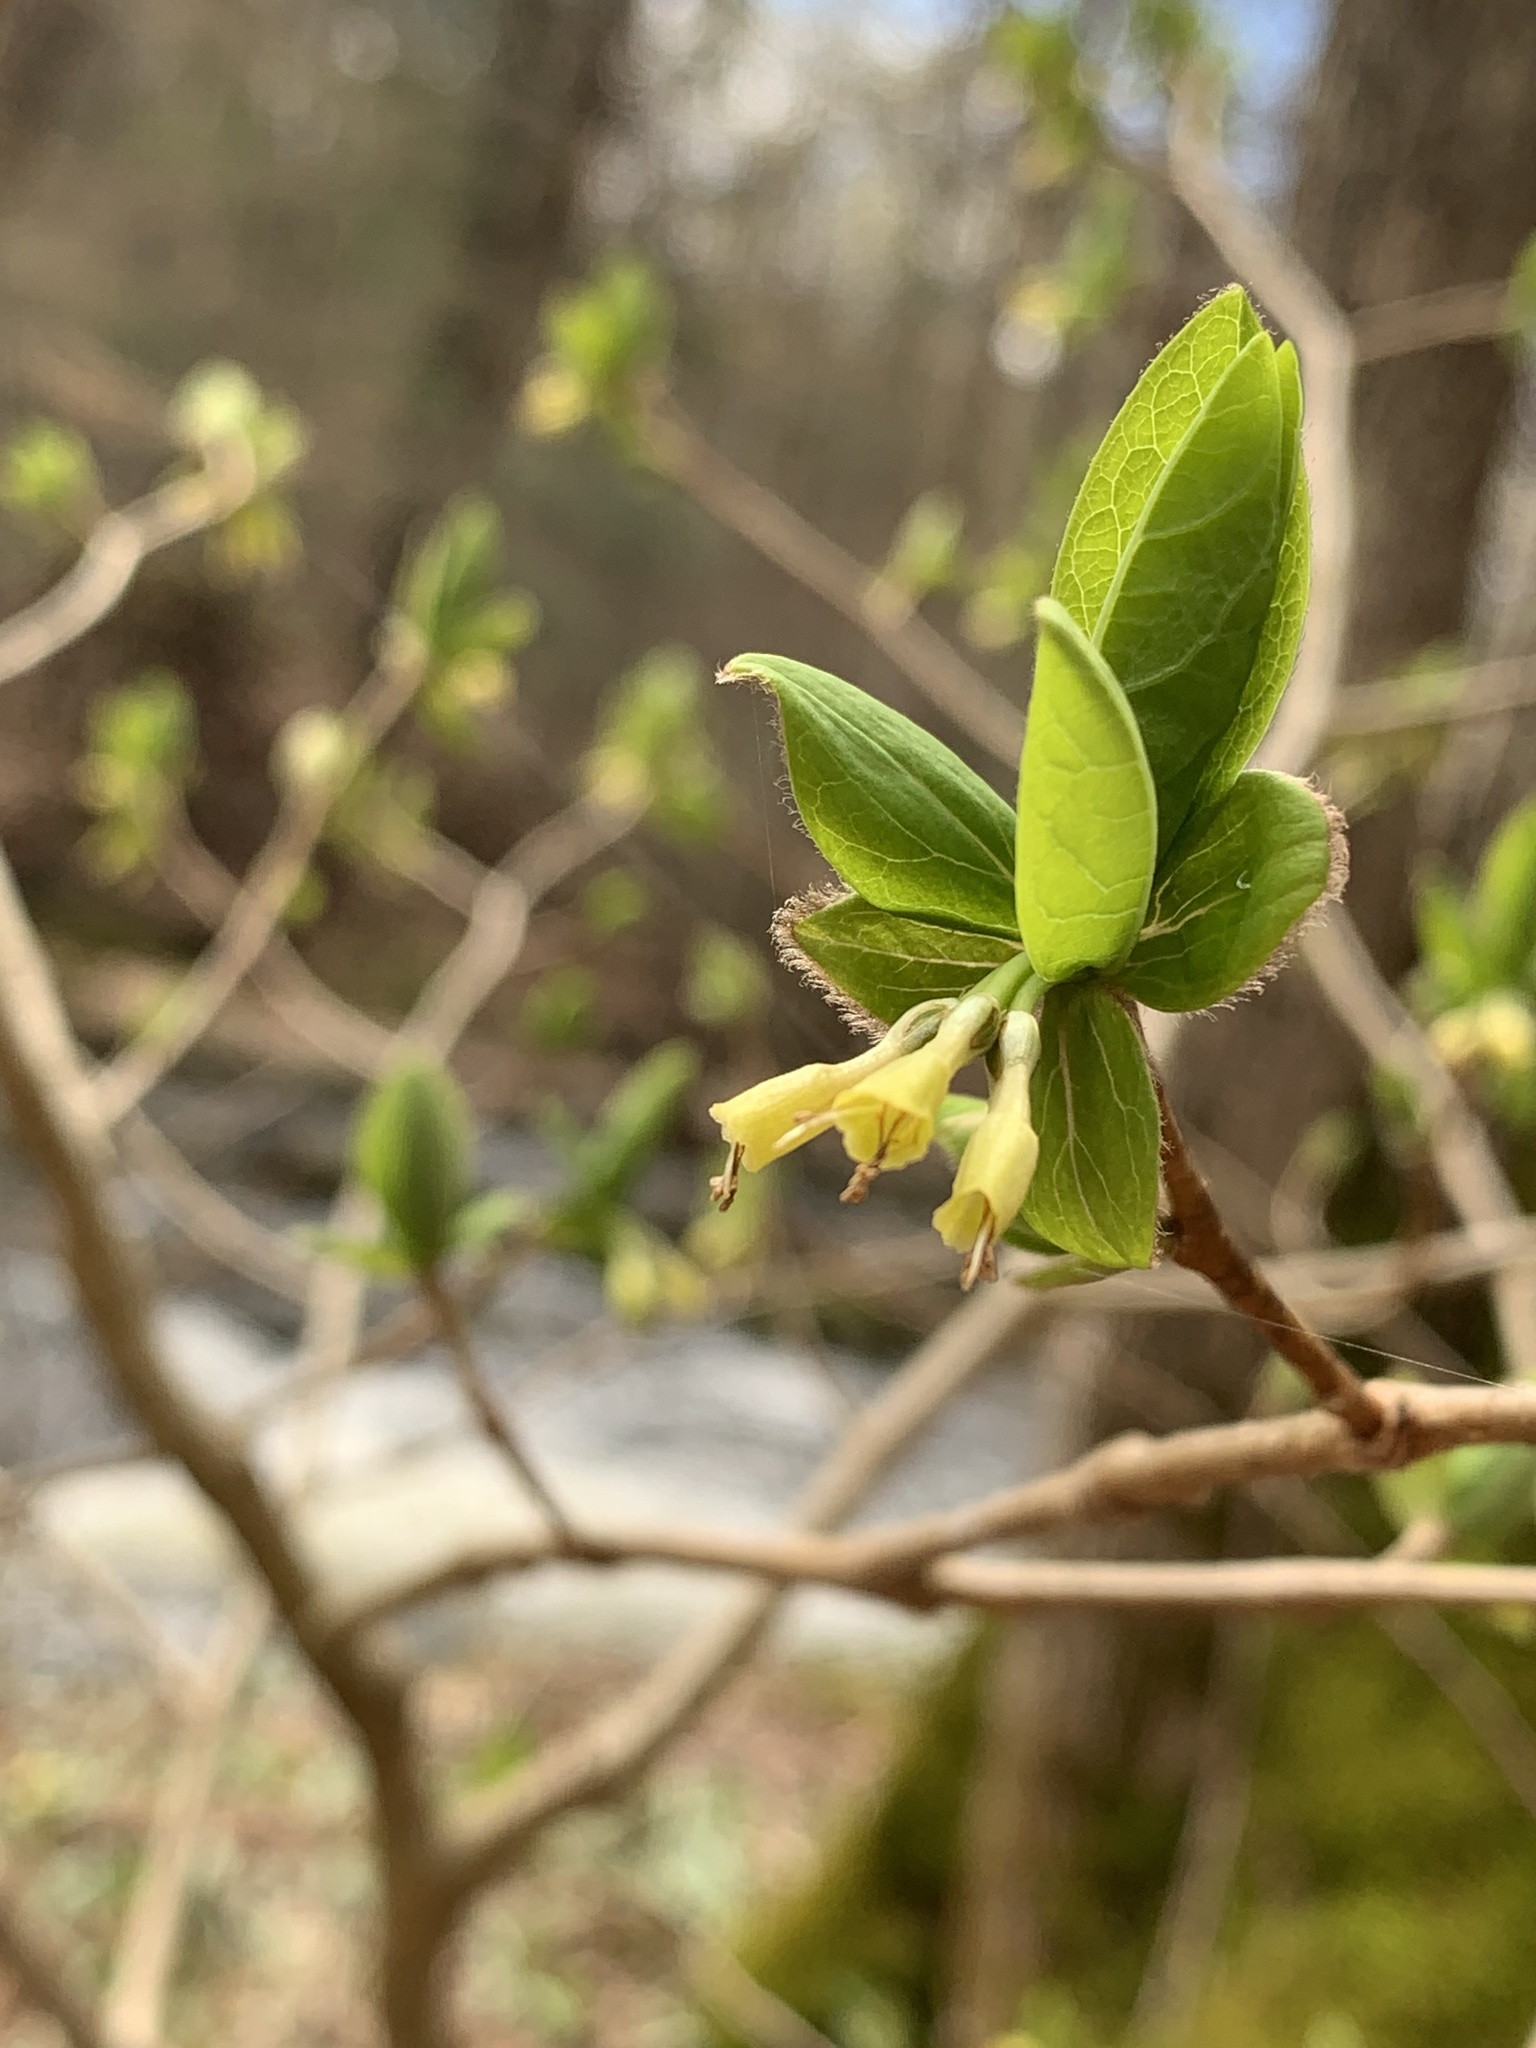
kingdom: Plantae
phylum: Tracheophyta
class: Magnoliopsida
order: Malvales
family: Thymelaeaceae
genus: Dirca
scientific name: Dirca palustris
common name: Leatherwood
